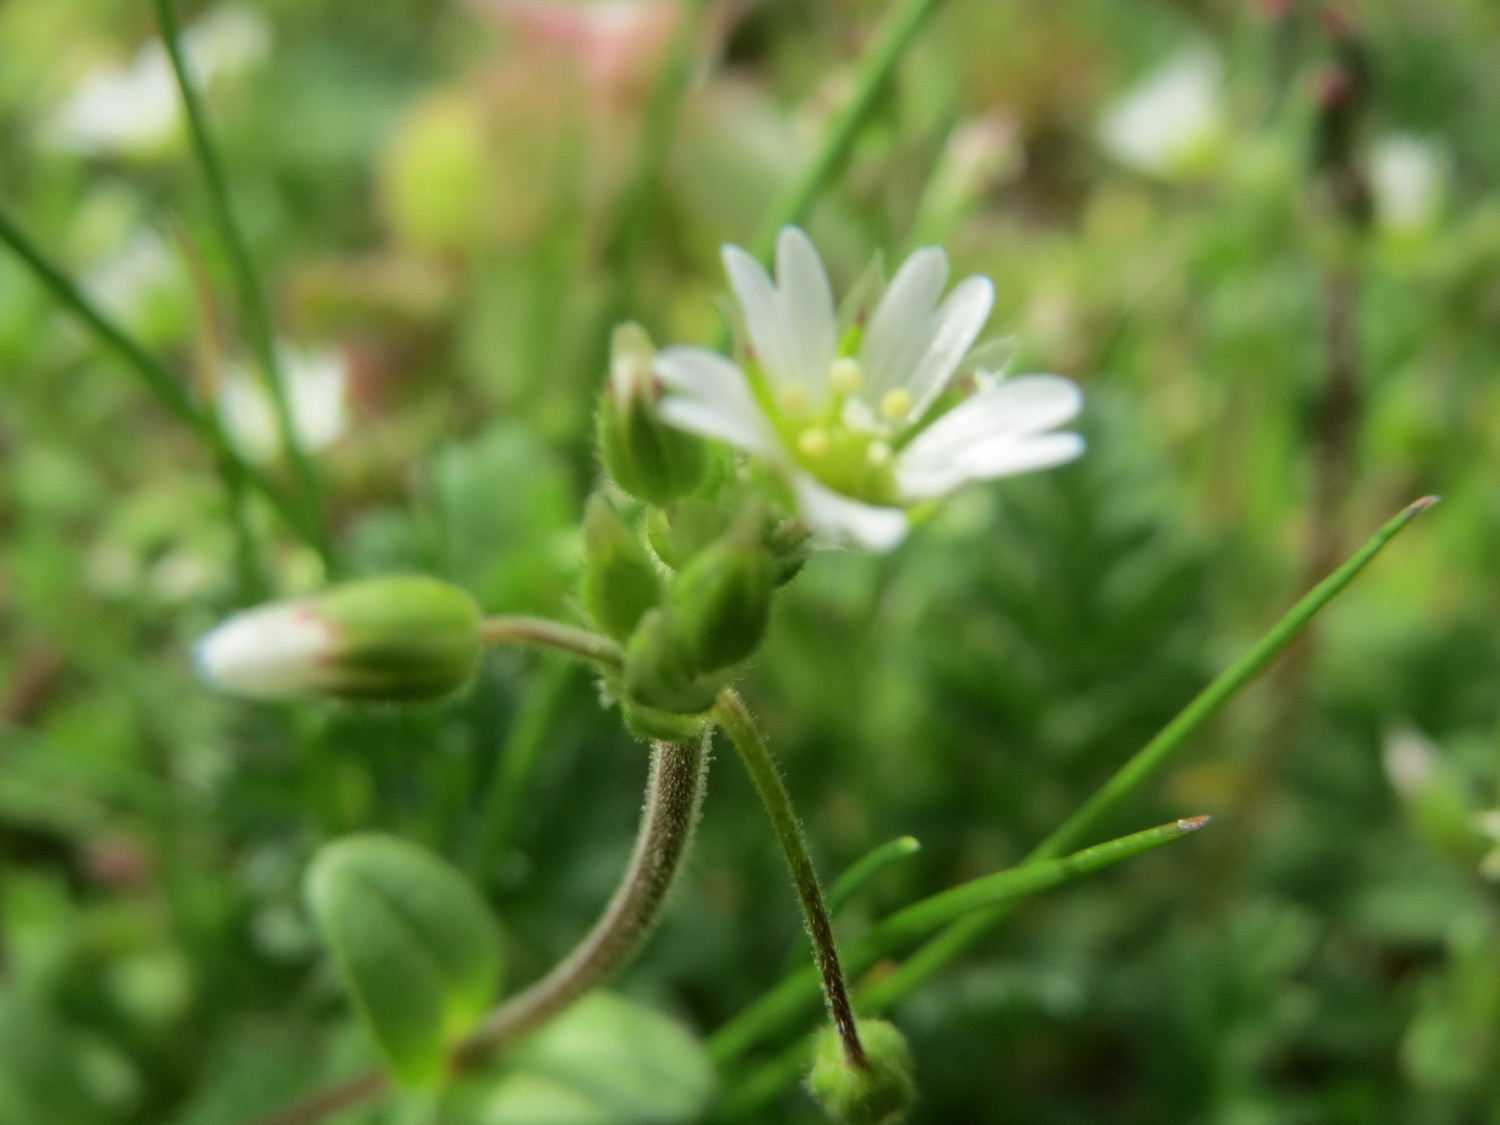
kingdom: Plantae
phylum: Tracheophyta
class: Magnoliopsida
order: Caryophyllales
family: Caryophyllaceae
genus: Cerastium
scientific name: Cerastium semidecandrum
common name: Little mouse-ear
